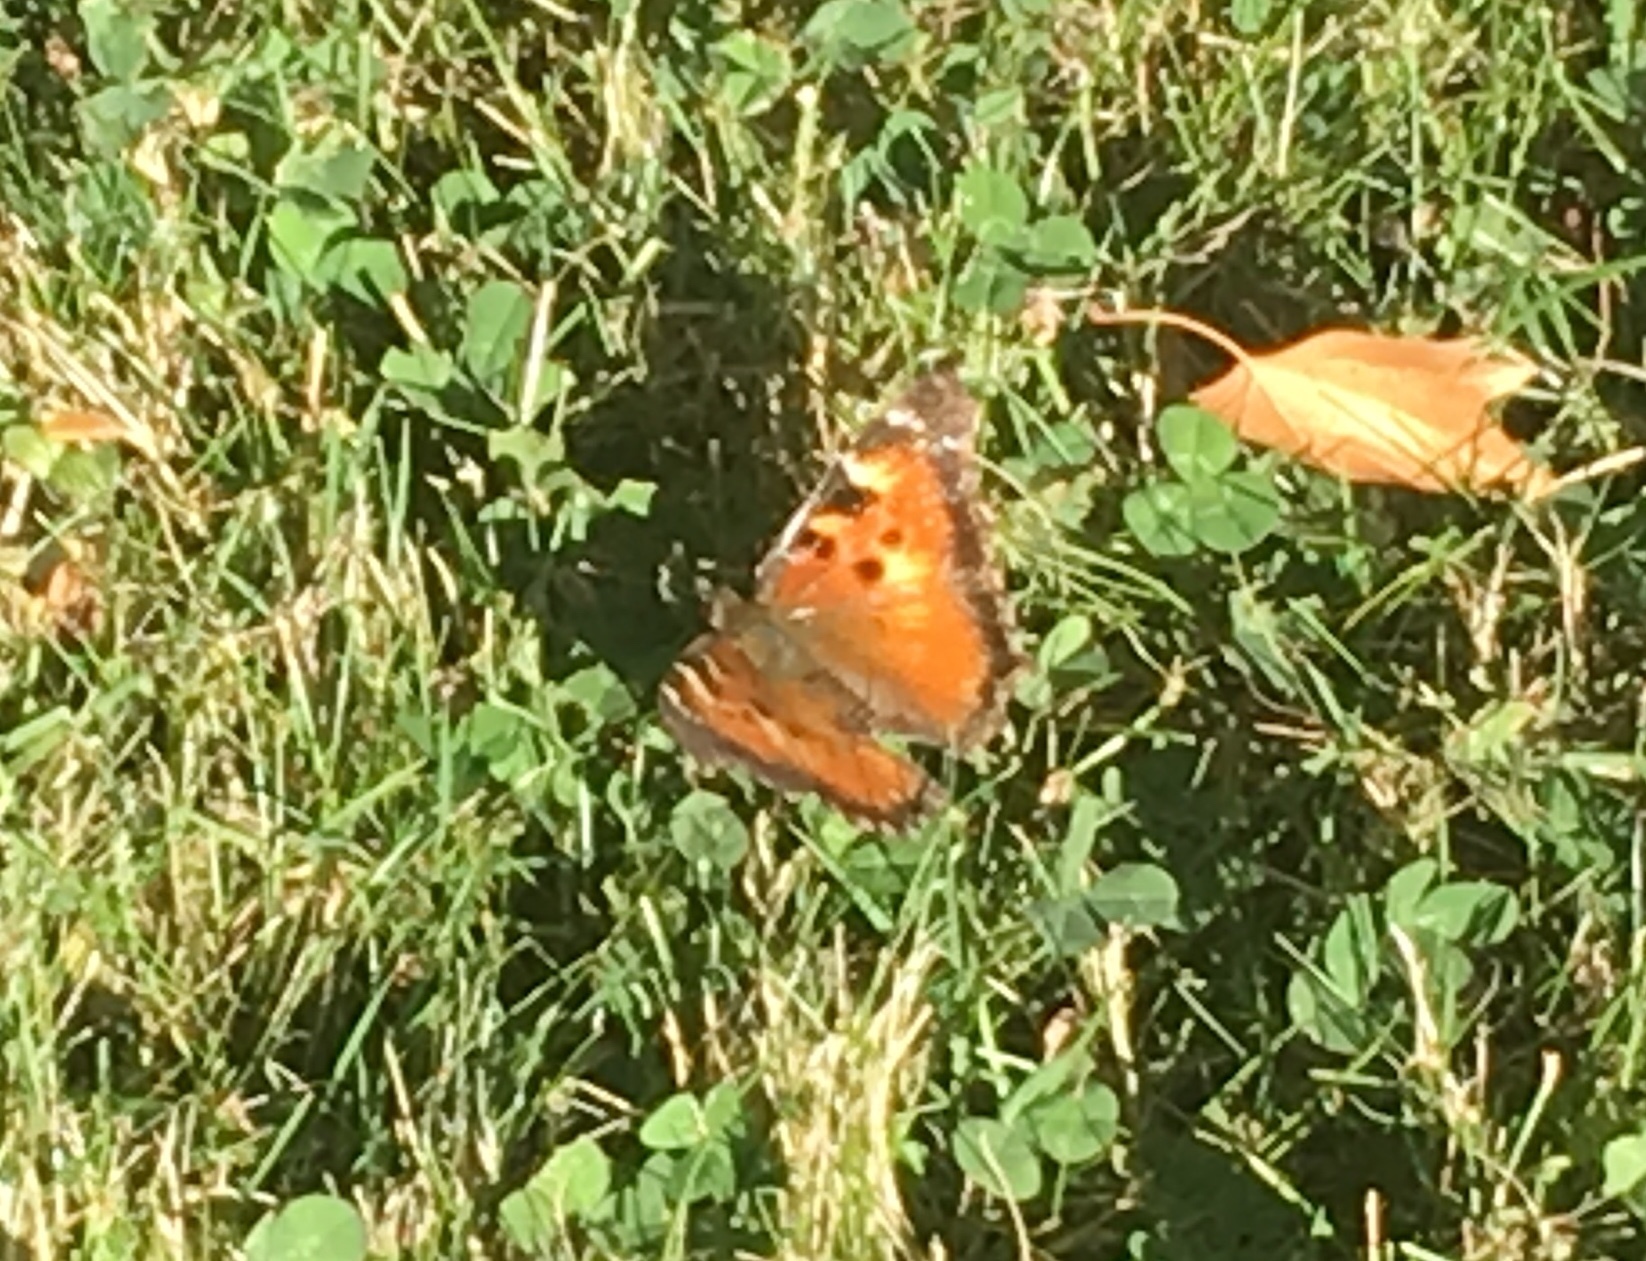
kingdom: Animalia
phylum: Arthropoda
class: Insecta
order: Lepidoptera
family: Nymphalidae
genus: Nymphalis
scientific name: Nymphalis californica
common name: California tortoiseshell
